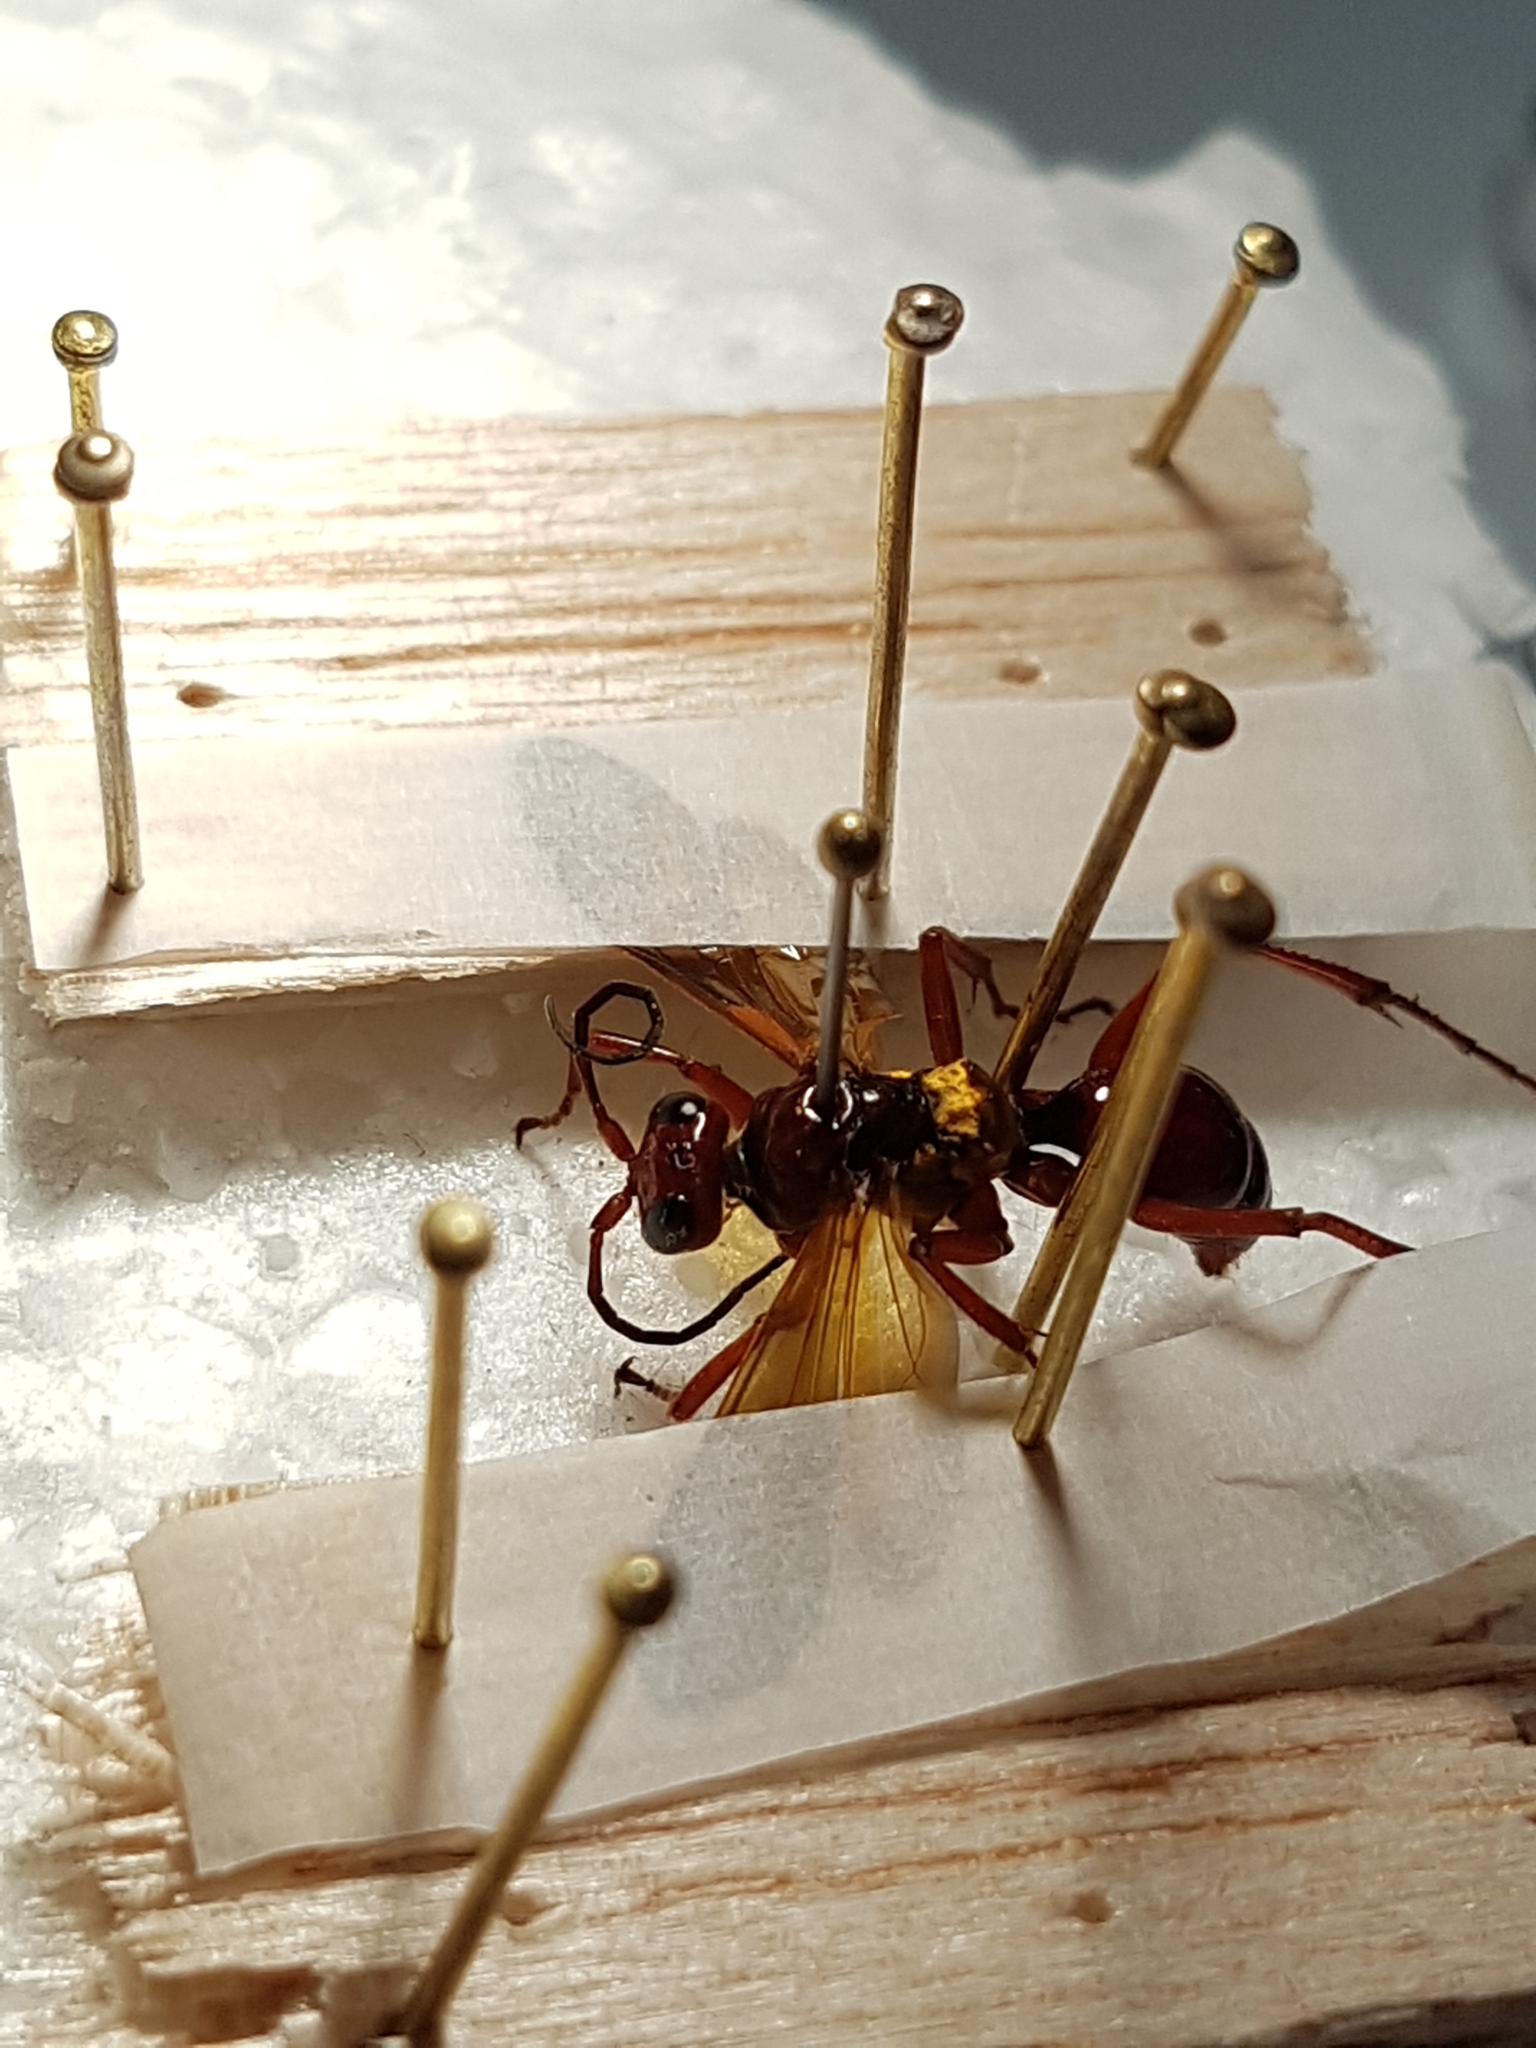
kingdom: Animalia
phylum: Arthropoda
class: Insecta
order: Hymenoptera
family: Pompilidae
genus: Sphictostethus
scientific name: Sphictostethus nitidus
